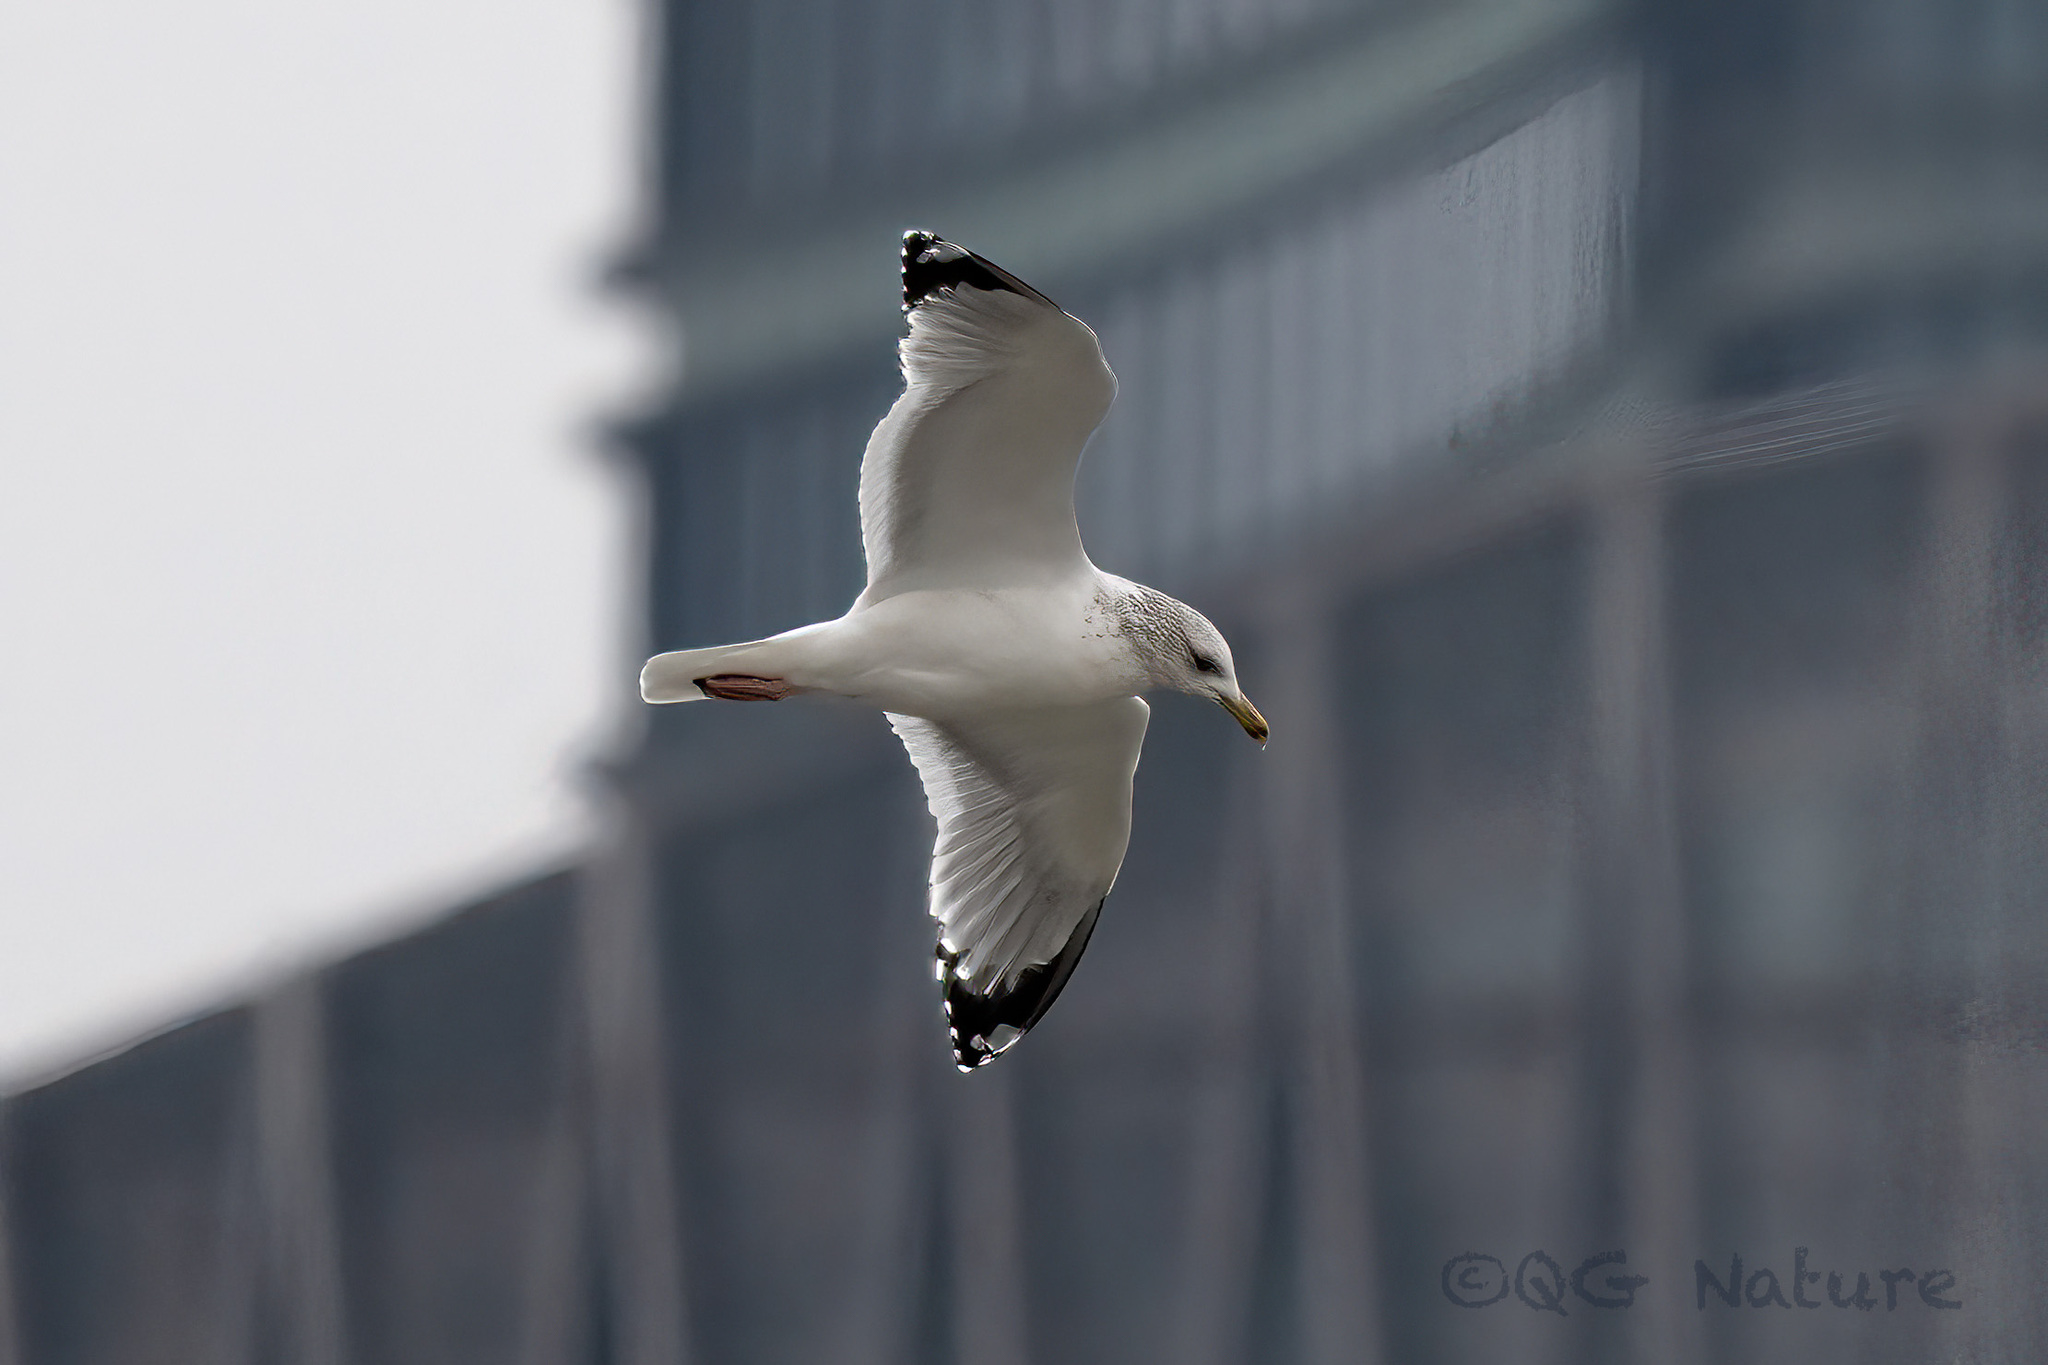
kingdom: Animalia
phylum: Chordata
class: Aves
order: Charadriiformes
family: Laridae
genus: Larus
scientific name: Larus vegae
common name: Vega gull
